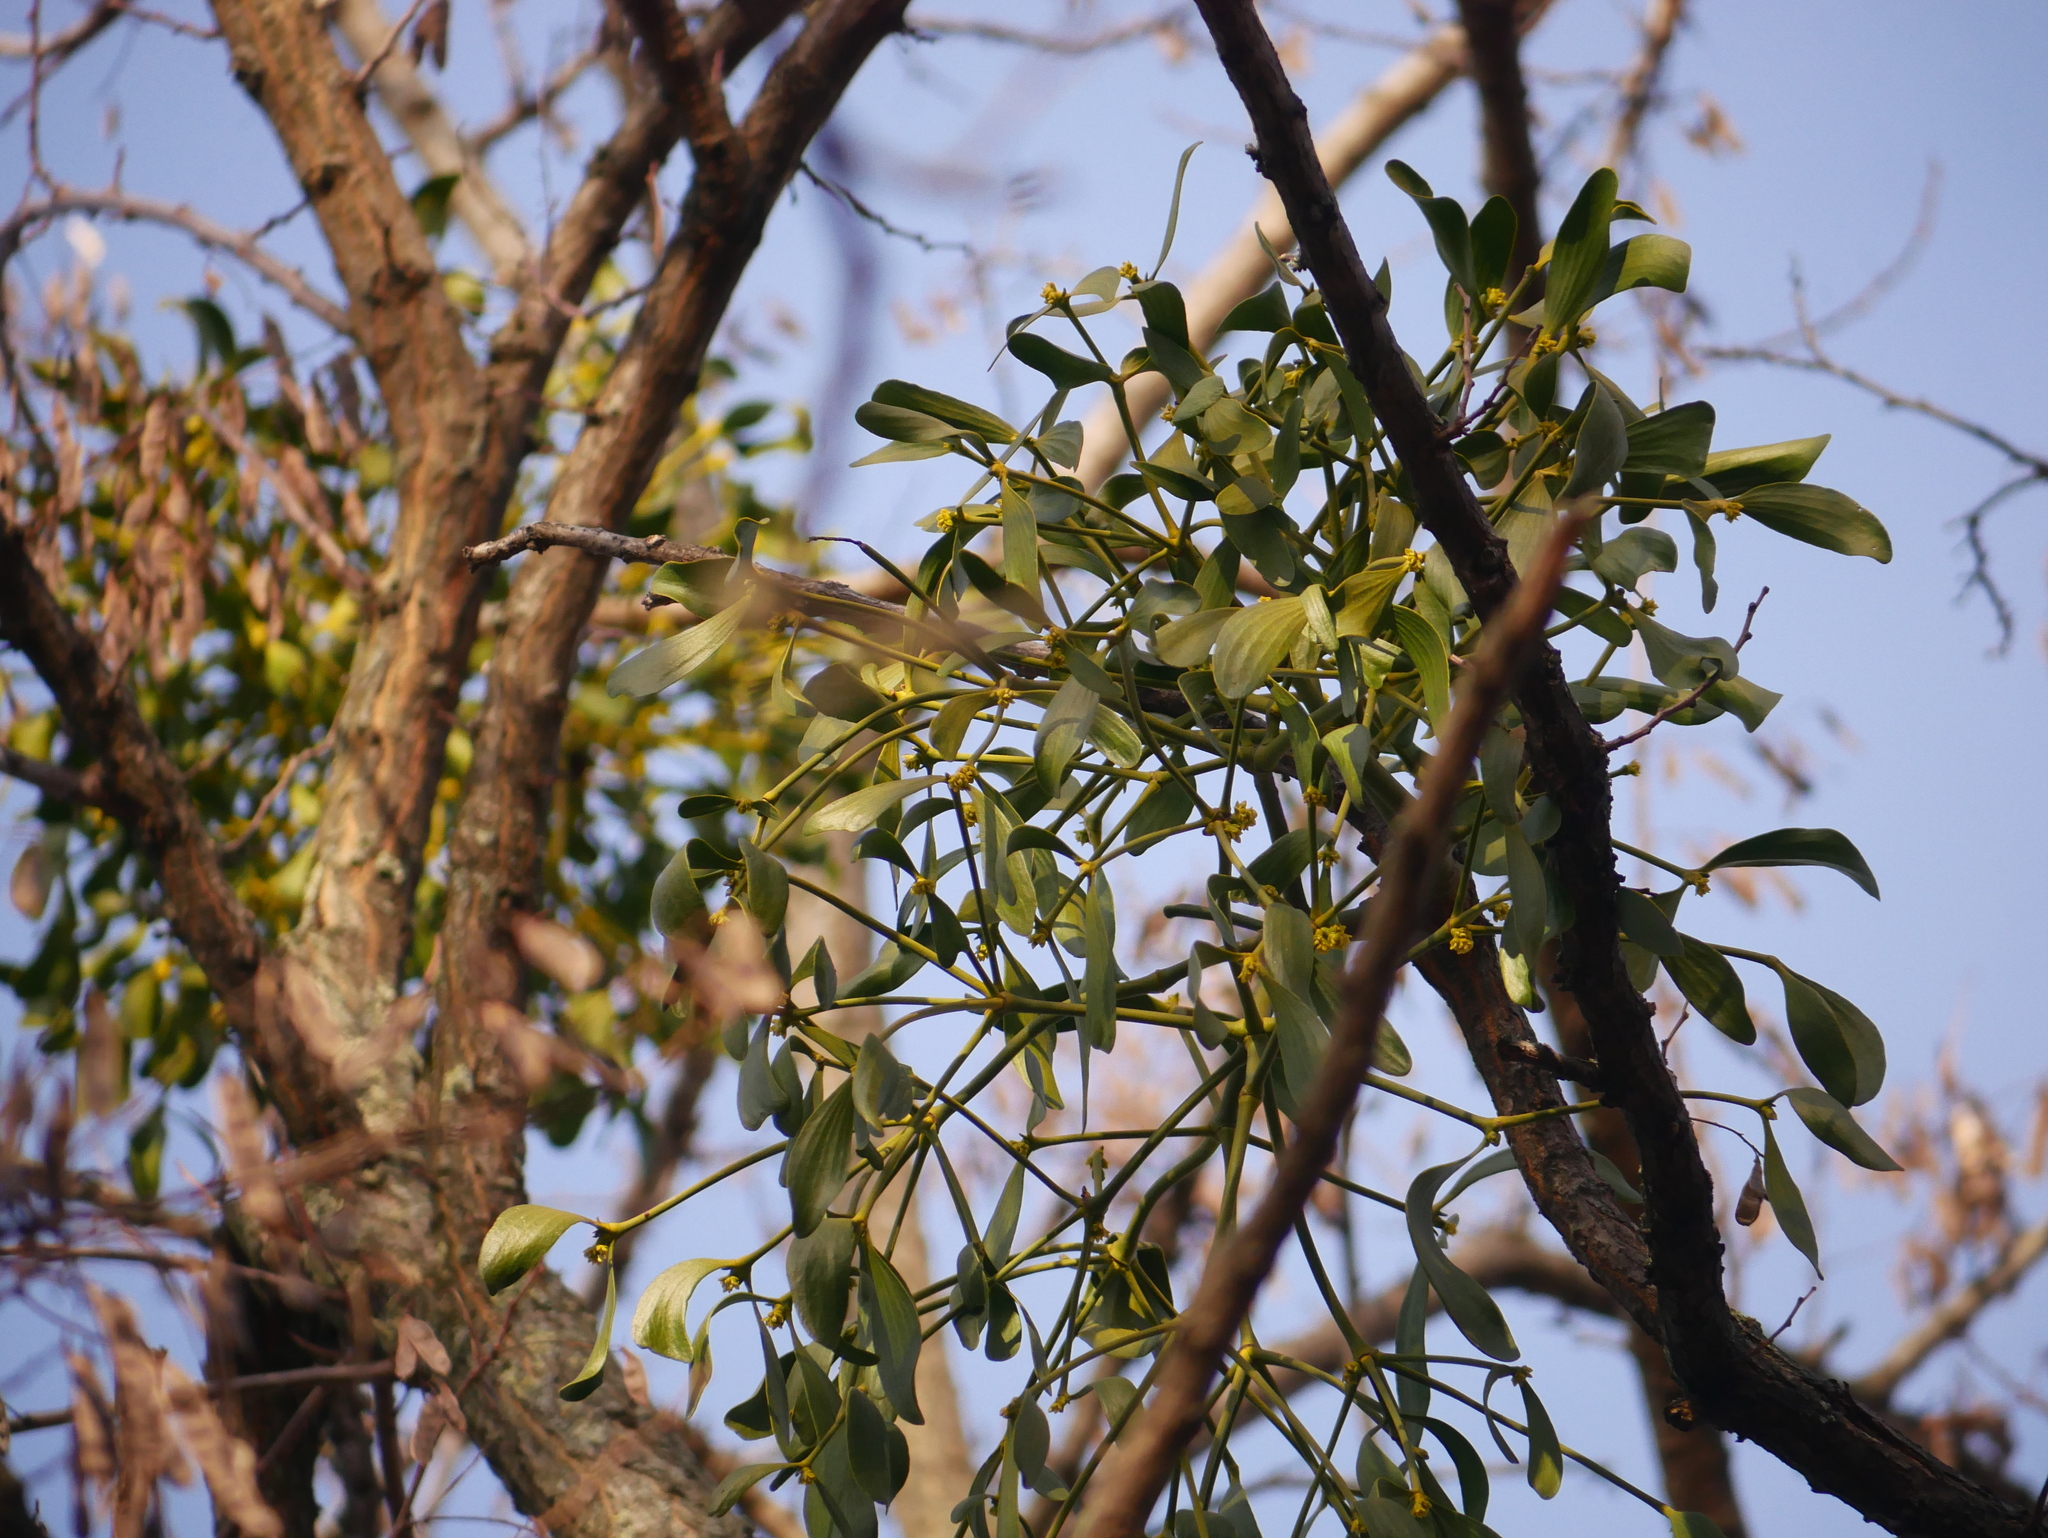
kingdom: Plantae
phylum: Tracheophyta
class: Magnoliopsida
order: Santalales
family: Viscaceae
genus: Viscum
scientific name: Viscum album
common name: Mistletoe
